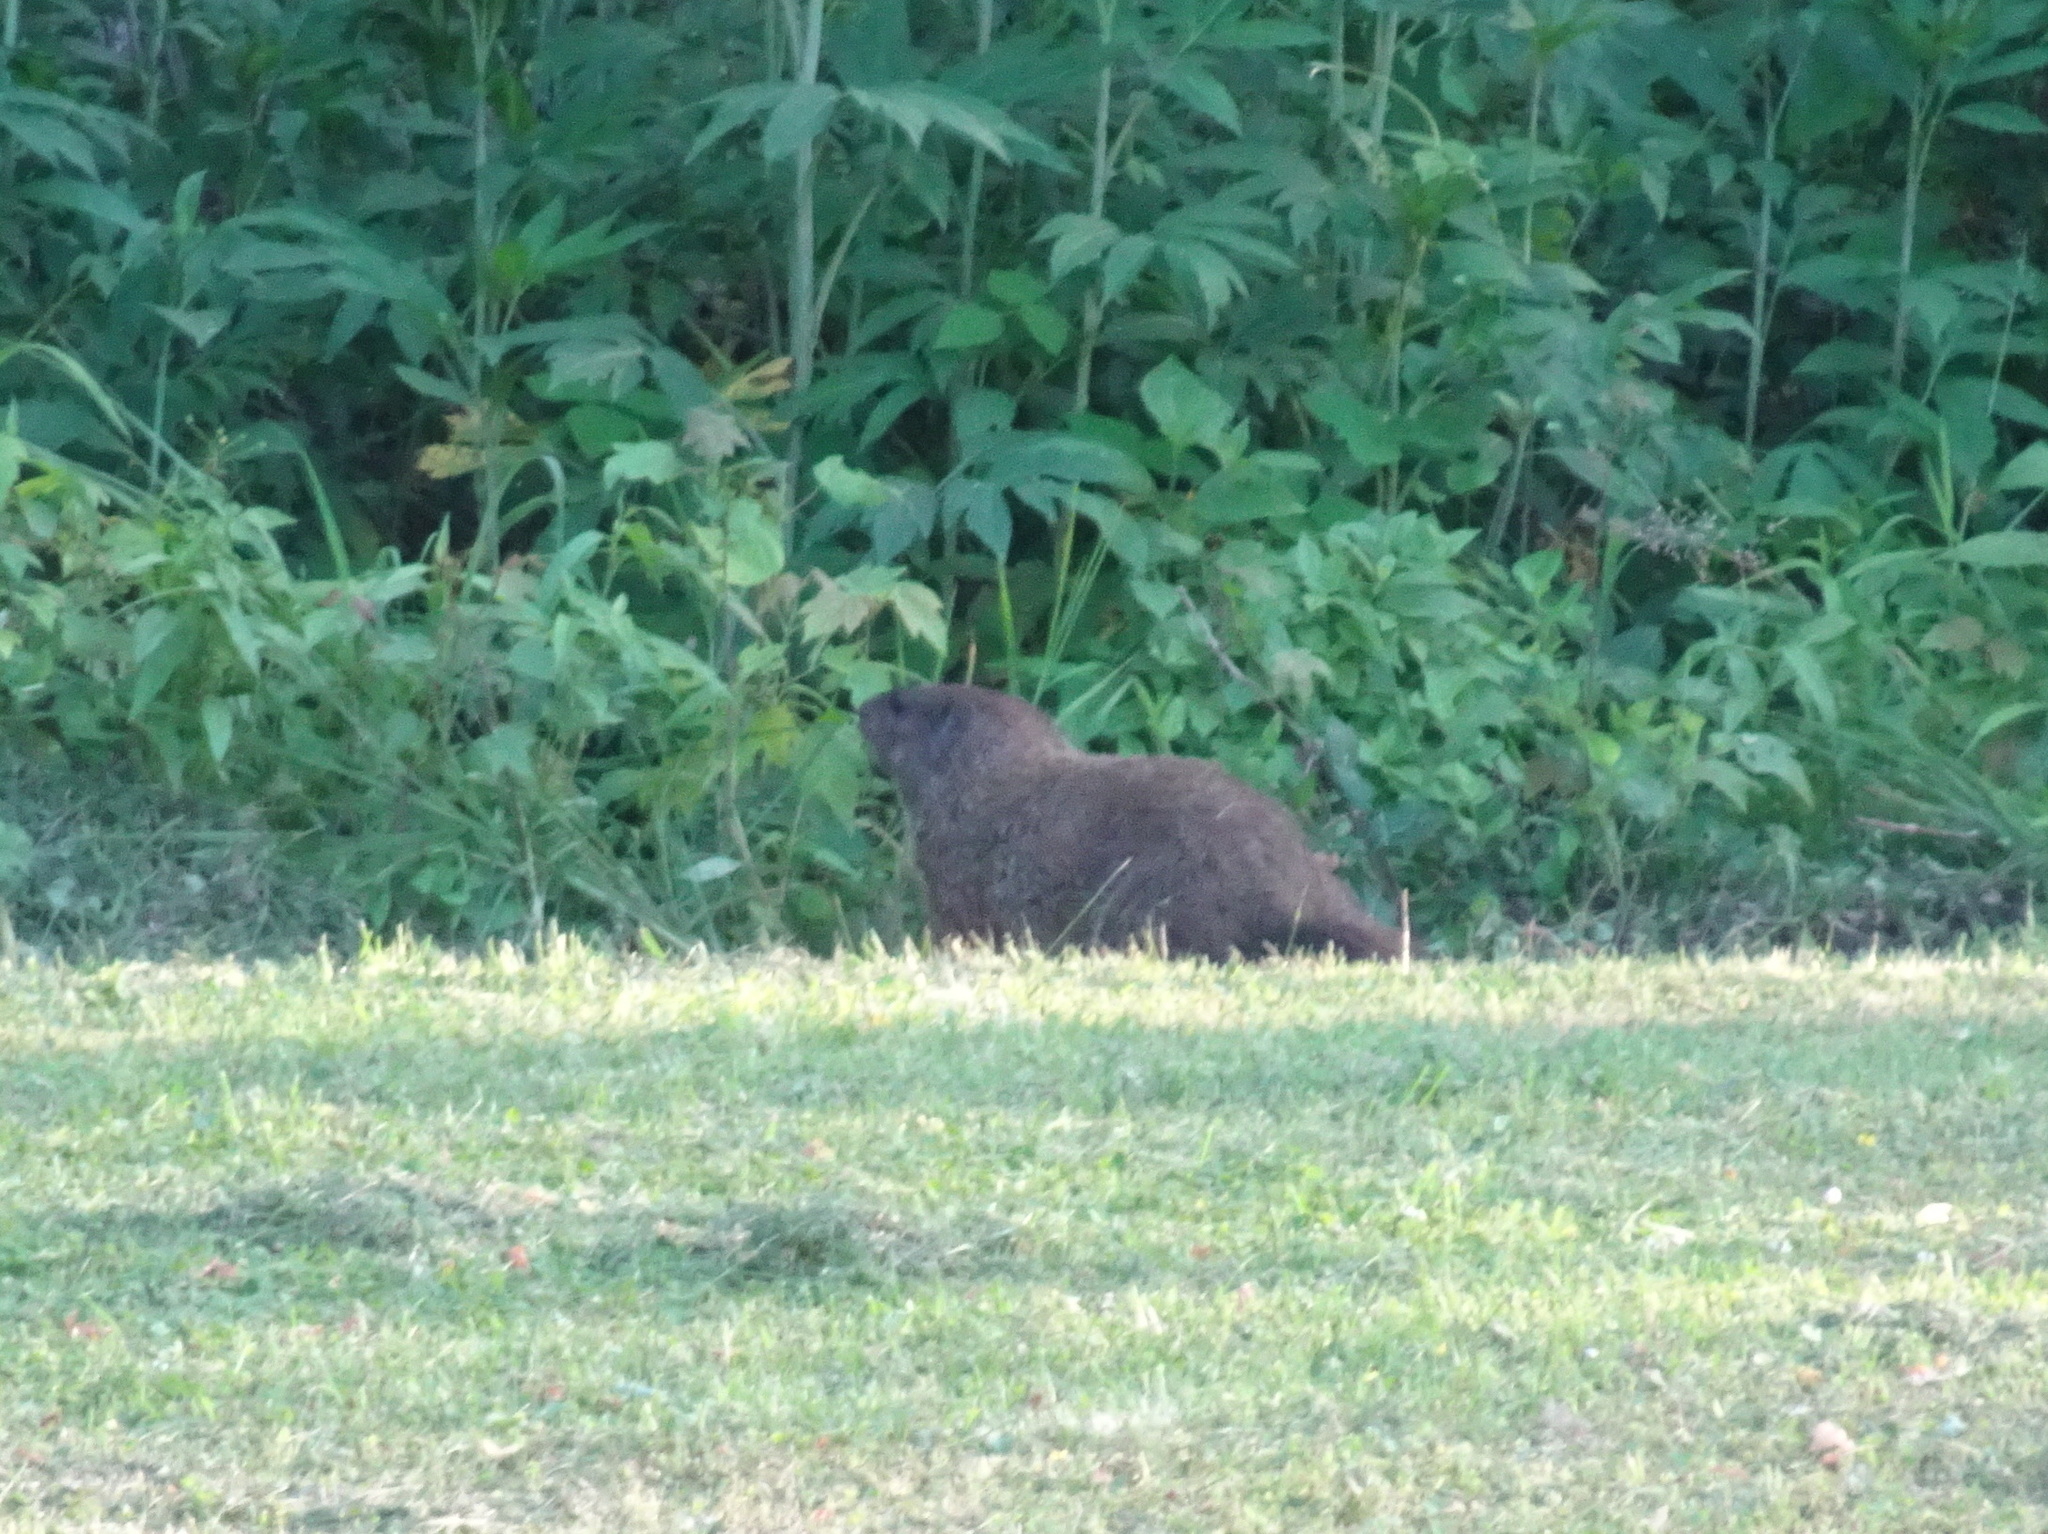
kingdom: Animalia
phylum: Chordata
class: Mammalia
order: Rodentia
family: Sciuridae
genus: Marmota
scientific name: Marmota monax
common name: Groundhog
